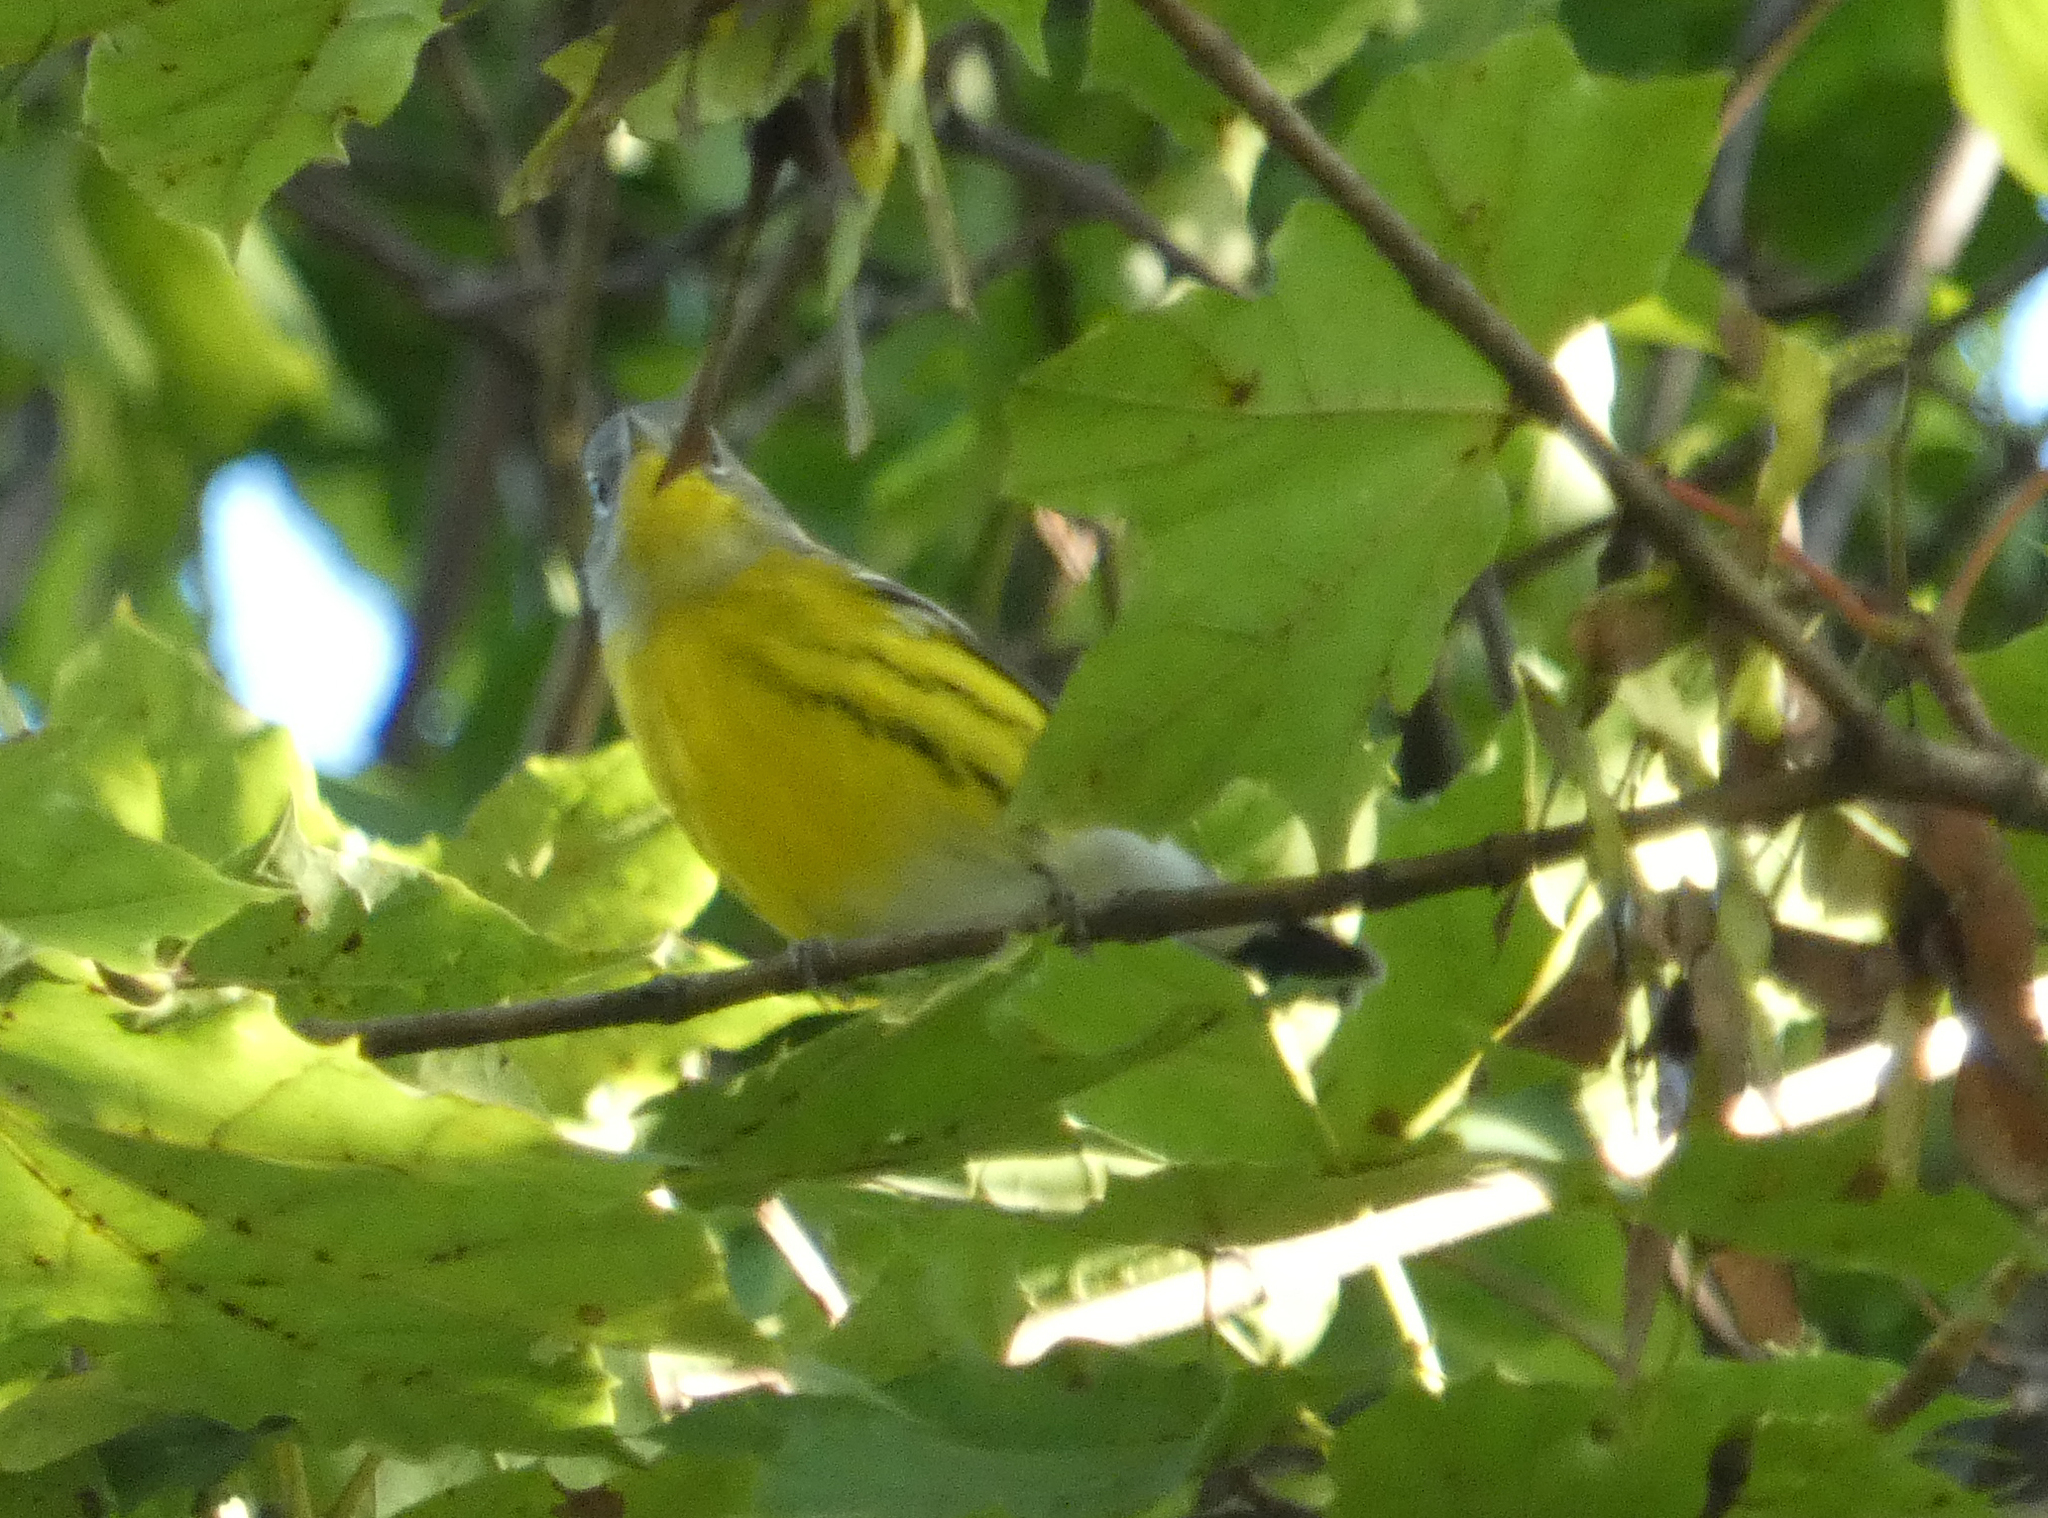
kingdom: Animalia
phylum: Chordata
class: Aves
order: Passeriformes
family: Parulidae
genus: Setophaga
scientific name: Setophaga magnolia
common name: Magnolia warbler
